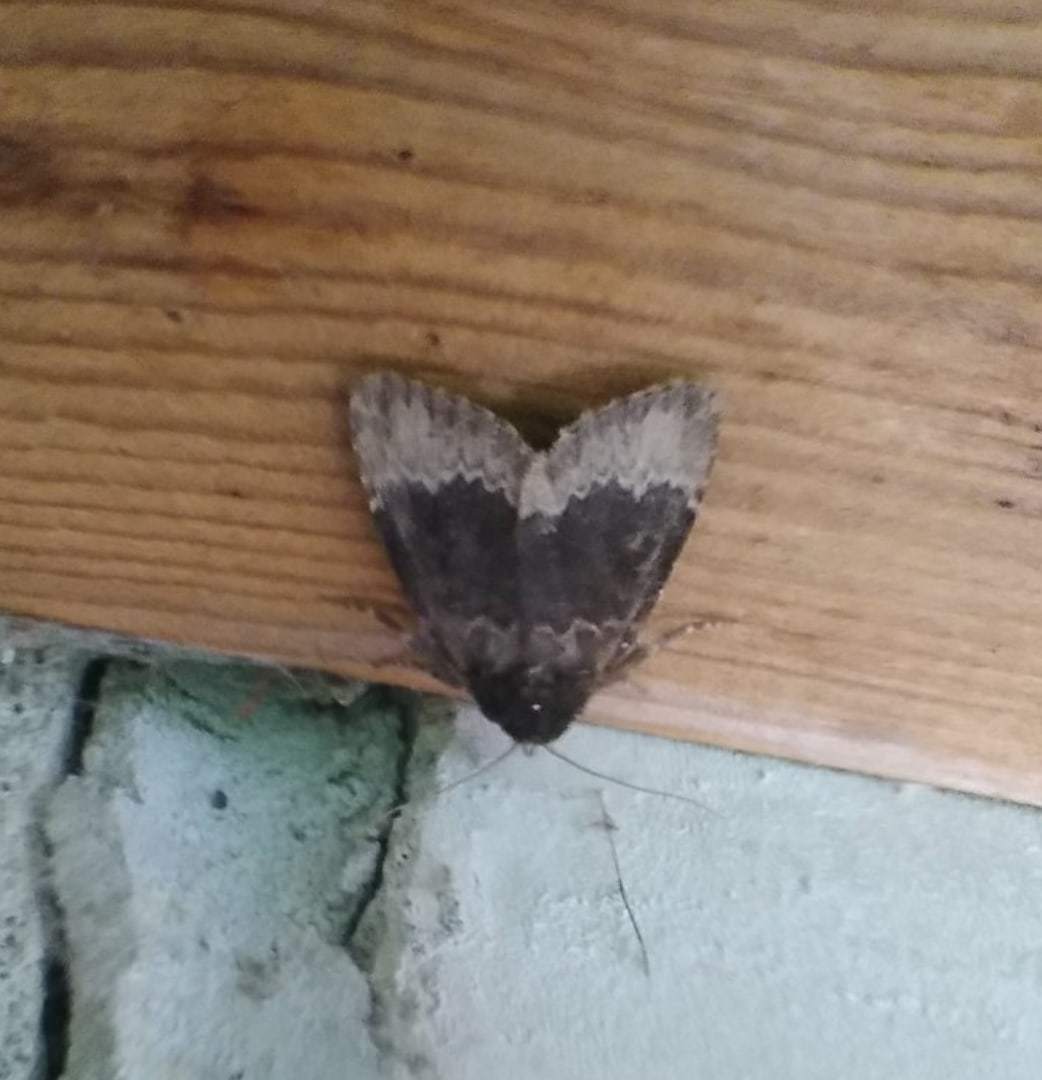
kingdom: Animalia
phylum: Arthropoda
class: Insecta
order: Lepidoptera
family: Noctuidae
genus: Amphipyra
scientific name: Amphipyra perflua
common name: Larger pale-tipped black moth
